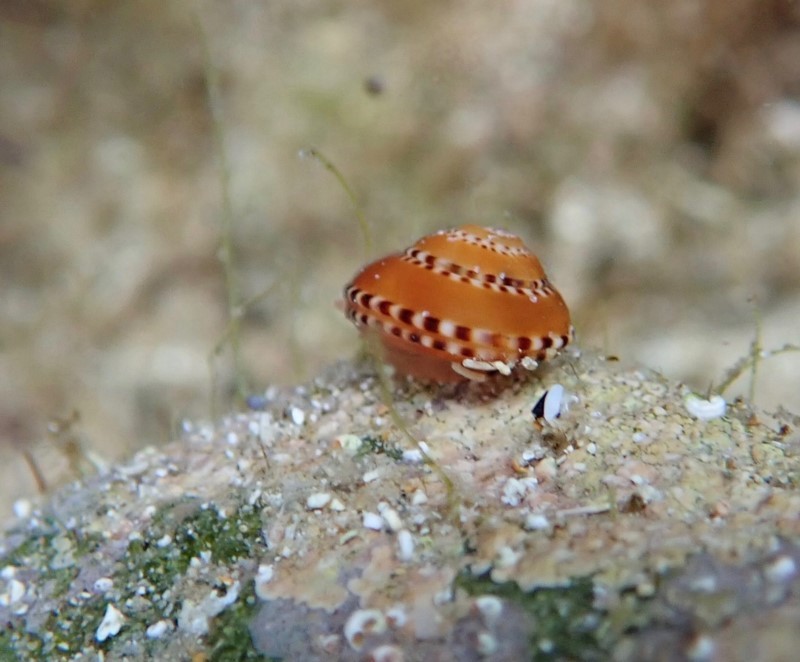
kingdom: Animalia
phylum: Mollusca
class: Gastropoda
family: Architectonicidae
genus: Philippia
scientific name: Philippia lutea
